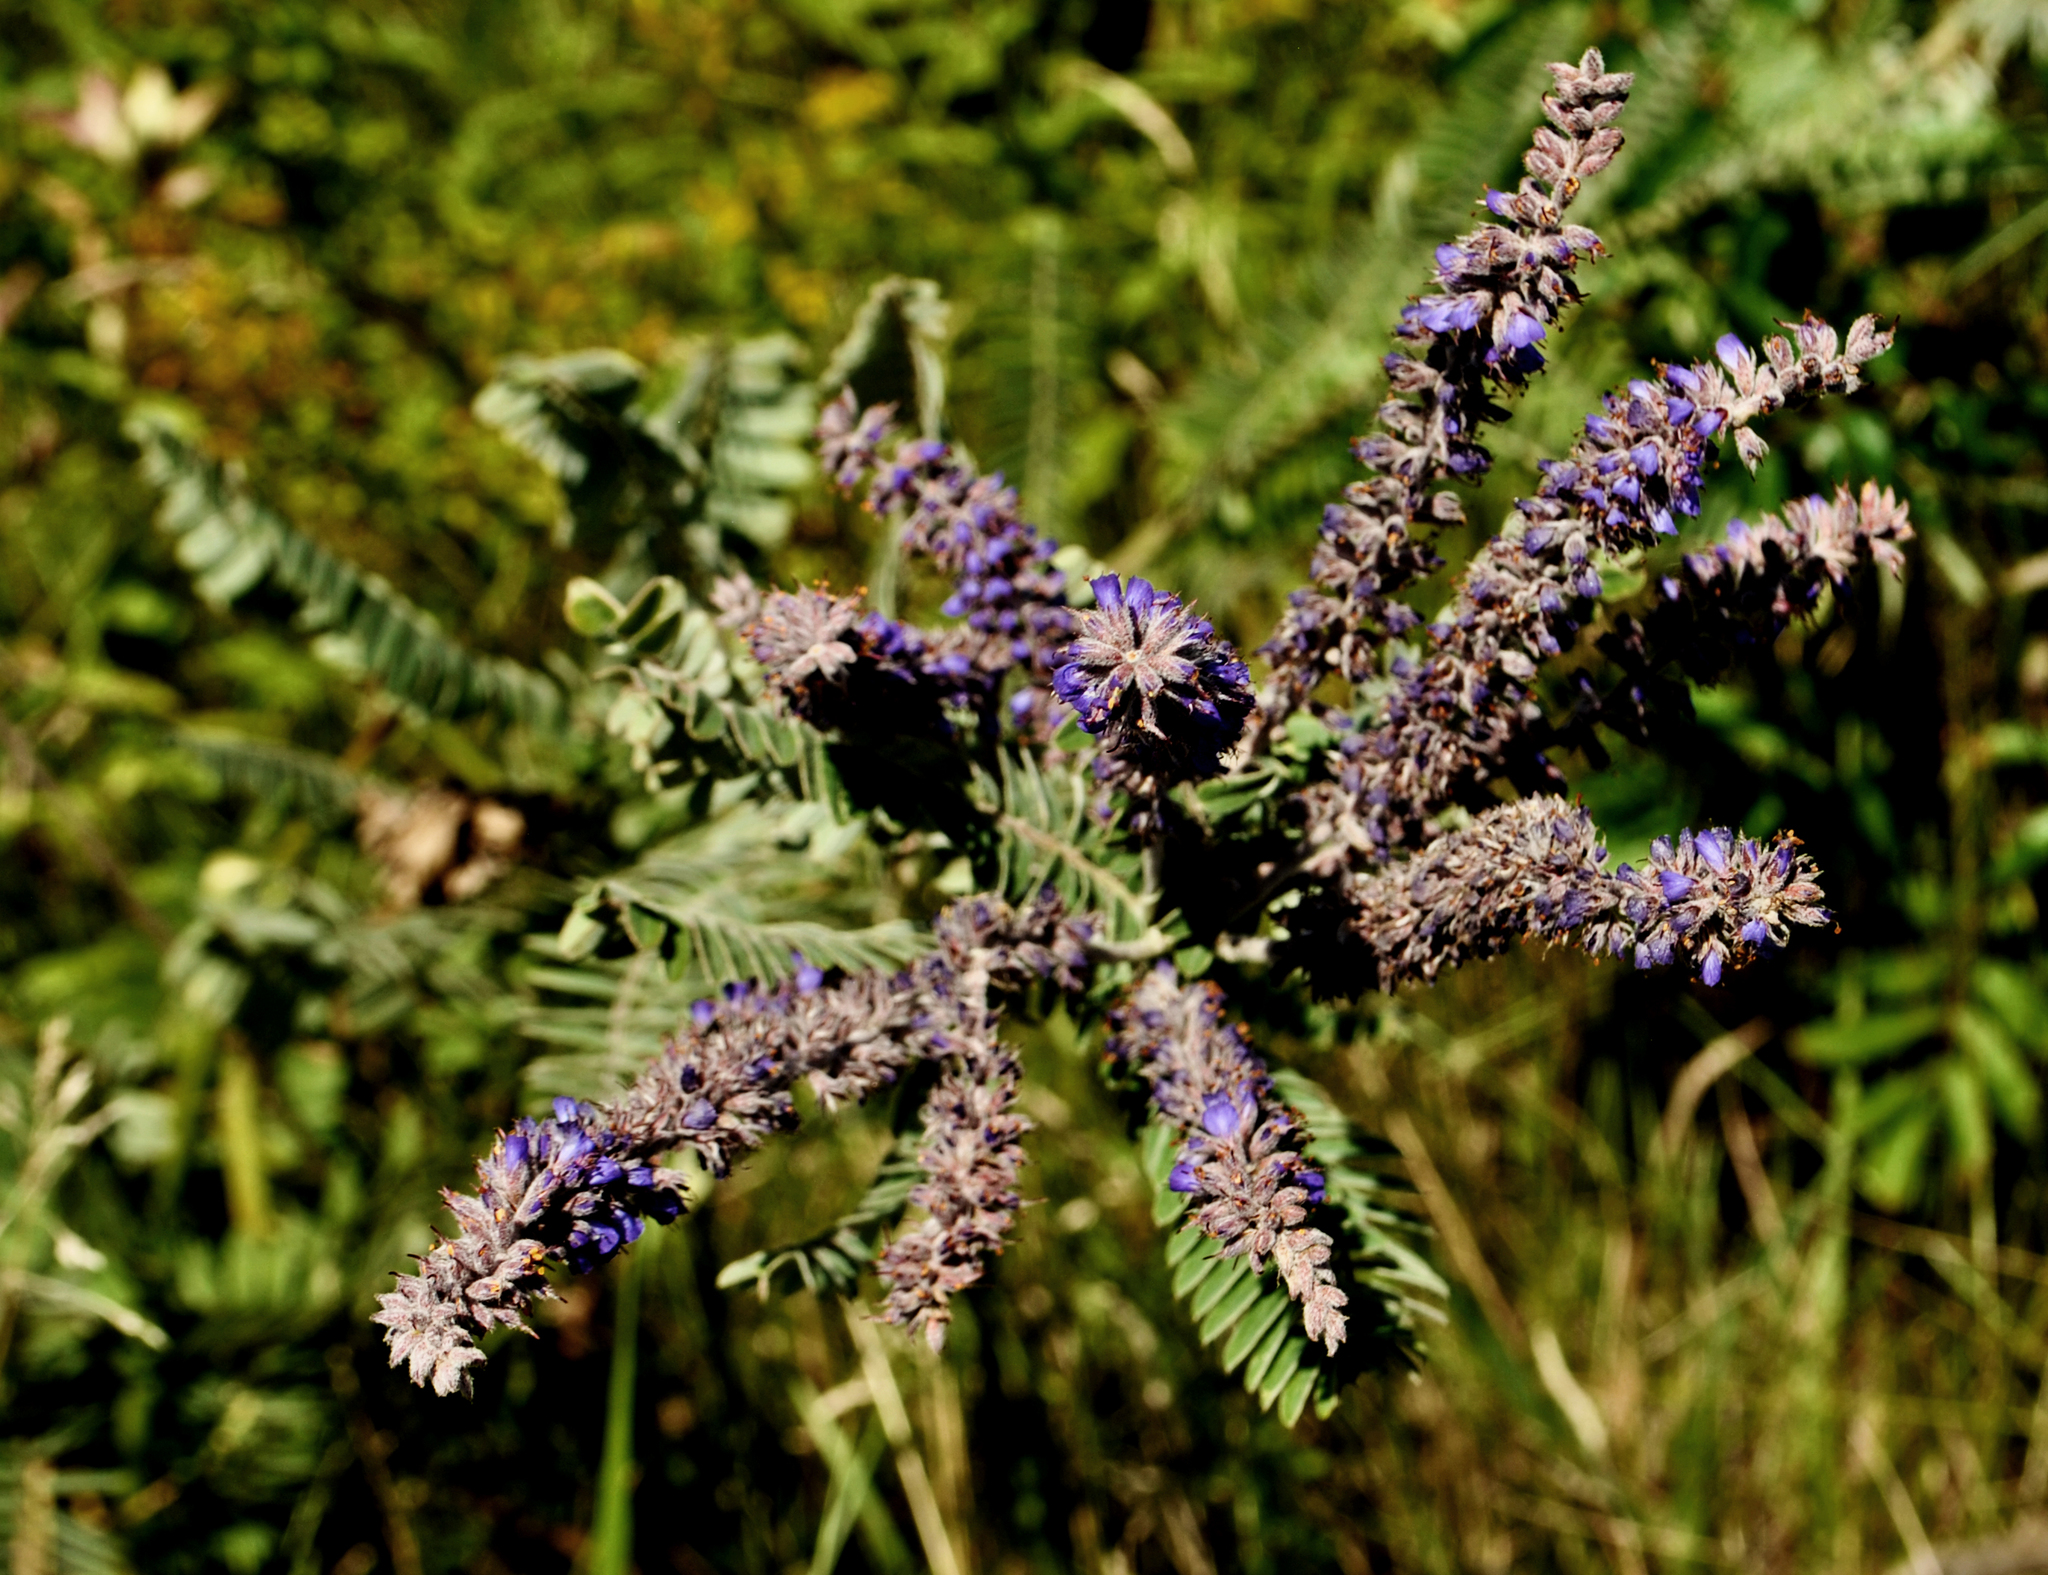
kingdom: Plantae
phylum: Tracheophyta
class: Magnoliopsida
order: Fabales
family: Fabaceae
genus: Amorpha
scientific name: Amorpha canescens
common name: Leadplant
